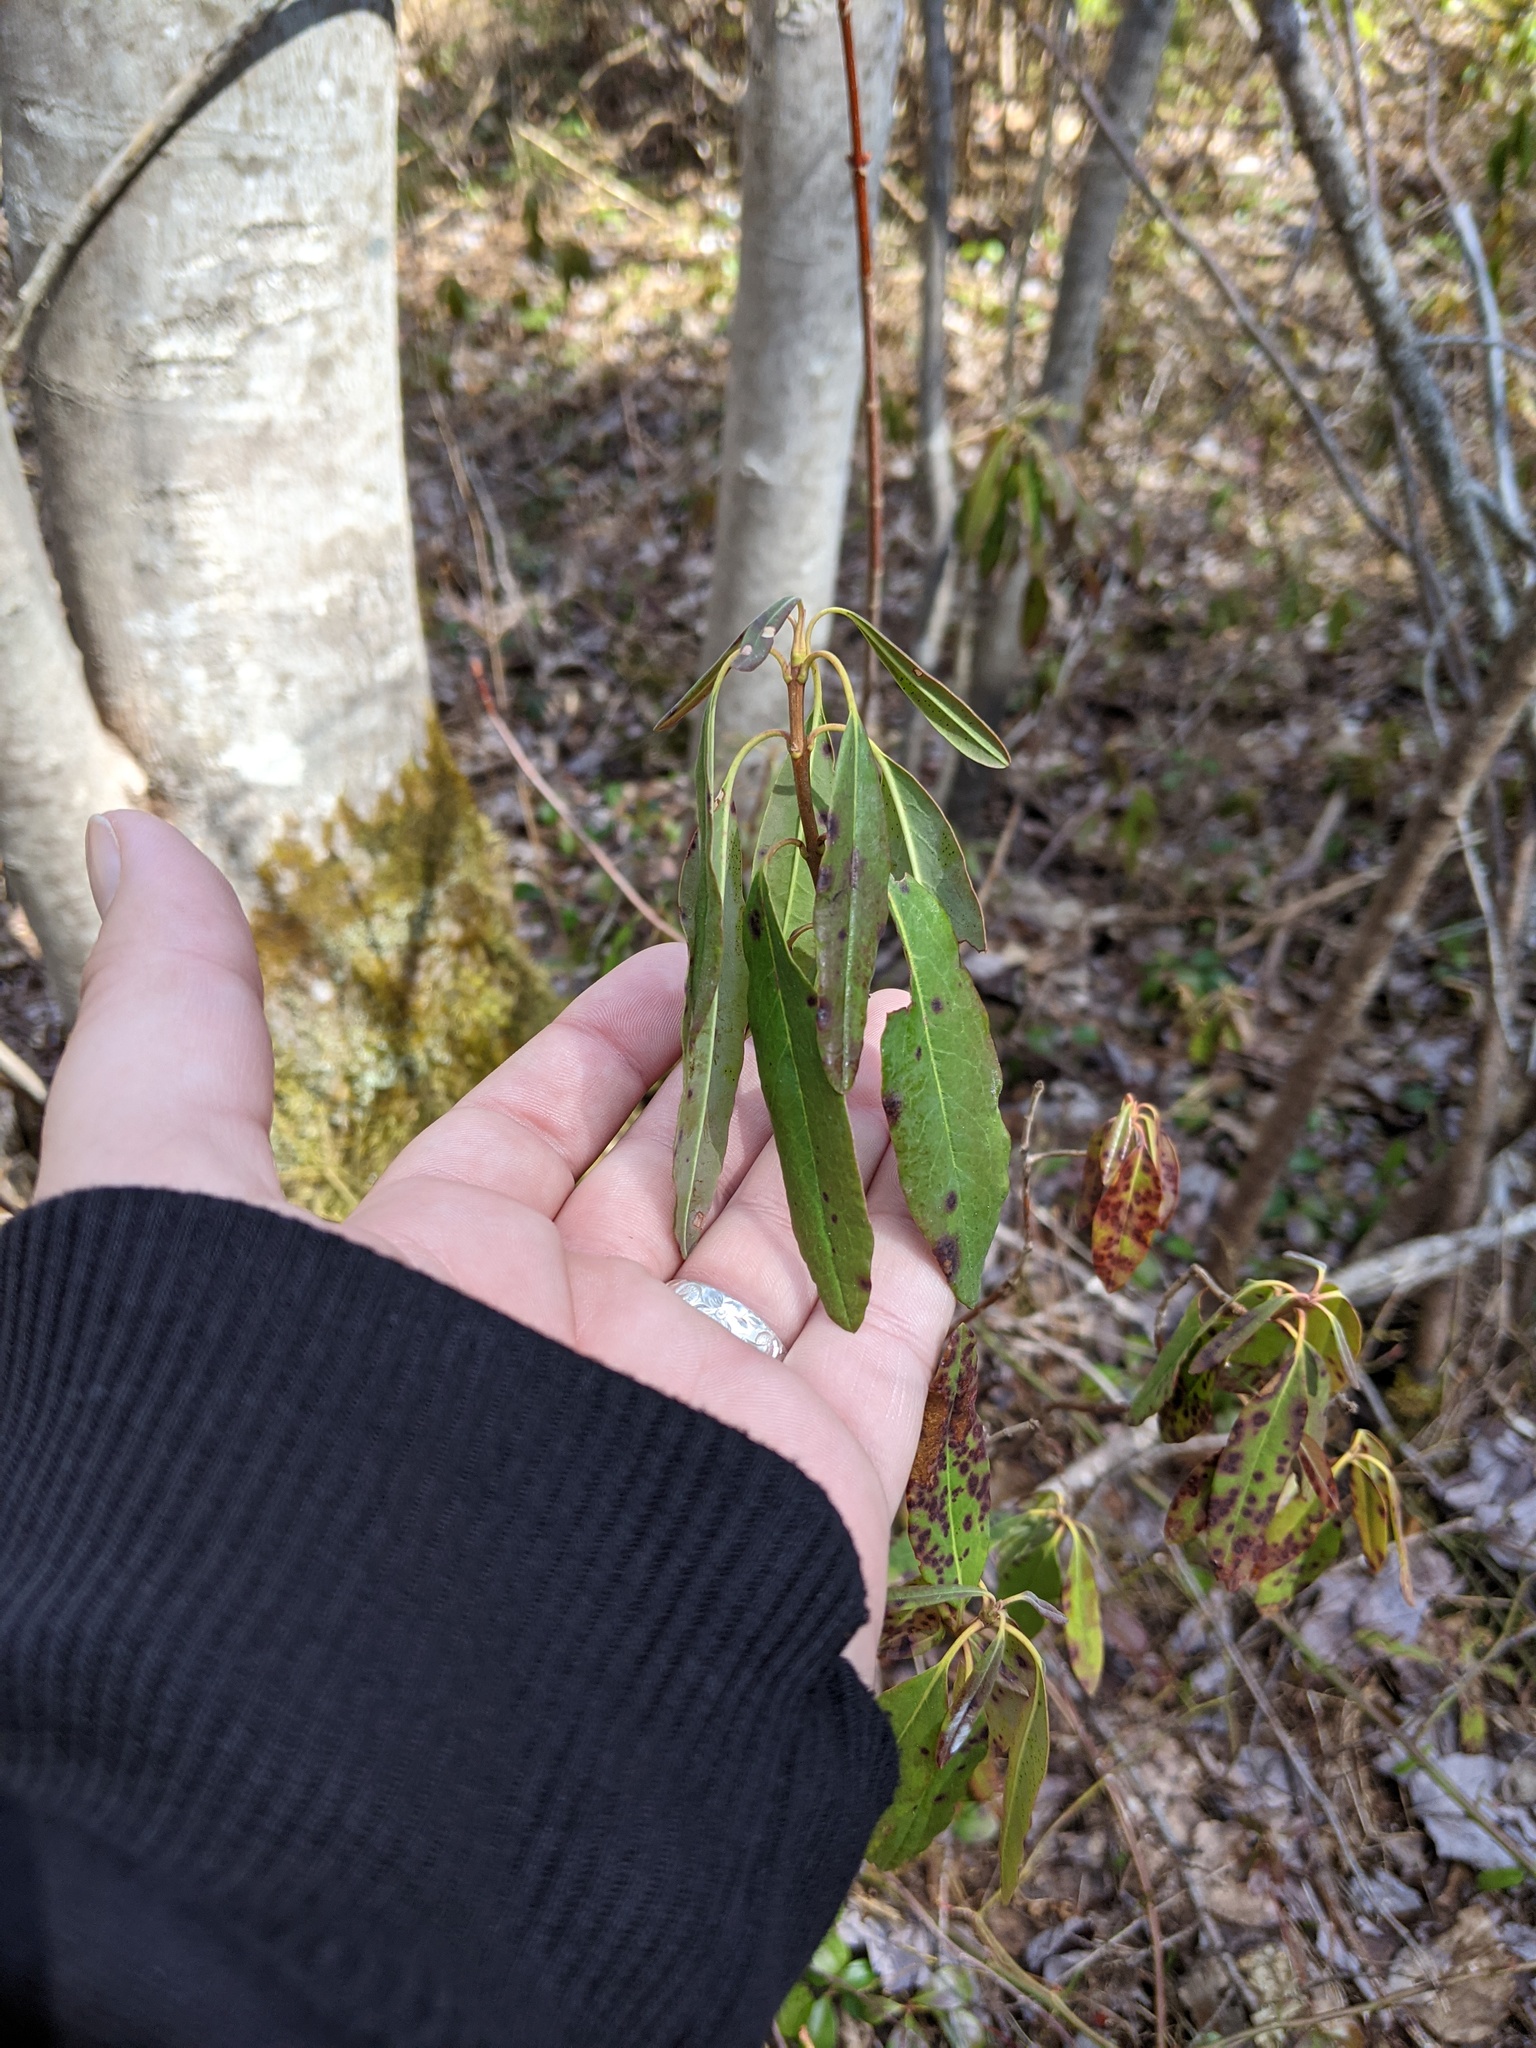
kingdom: Plantae
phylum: Tracheophyta
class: Magnoliopsida
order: Ericales
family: Ericaceae
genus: Kalmia
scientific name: Kalmia angustifolia
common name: Sheep-laurel
